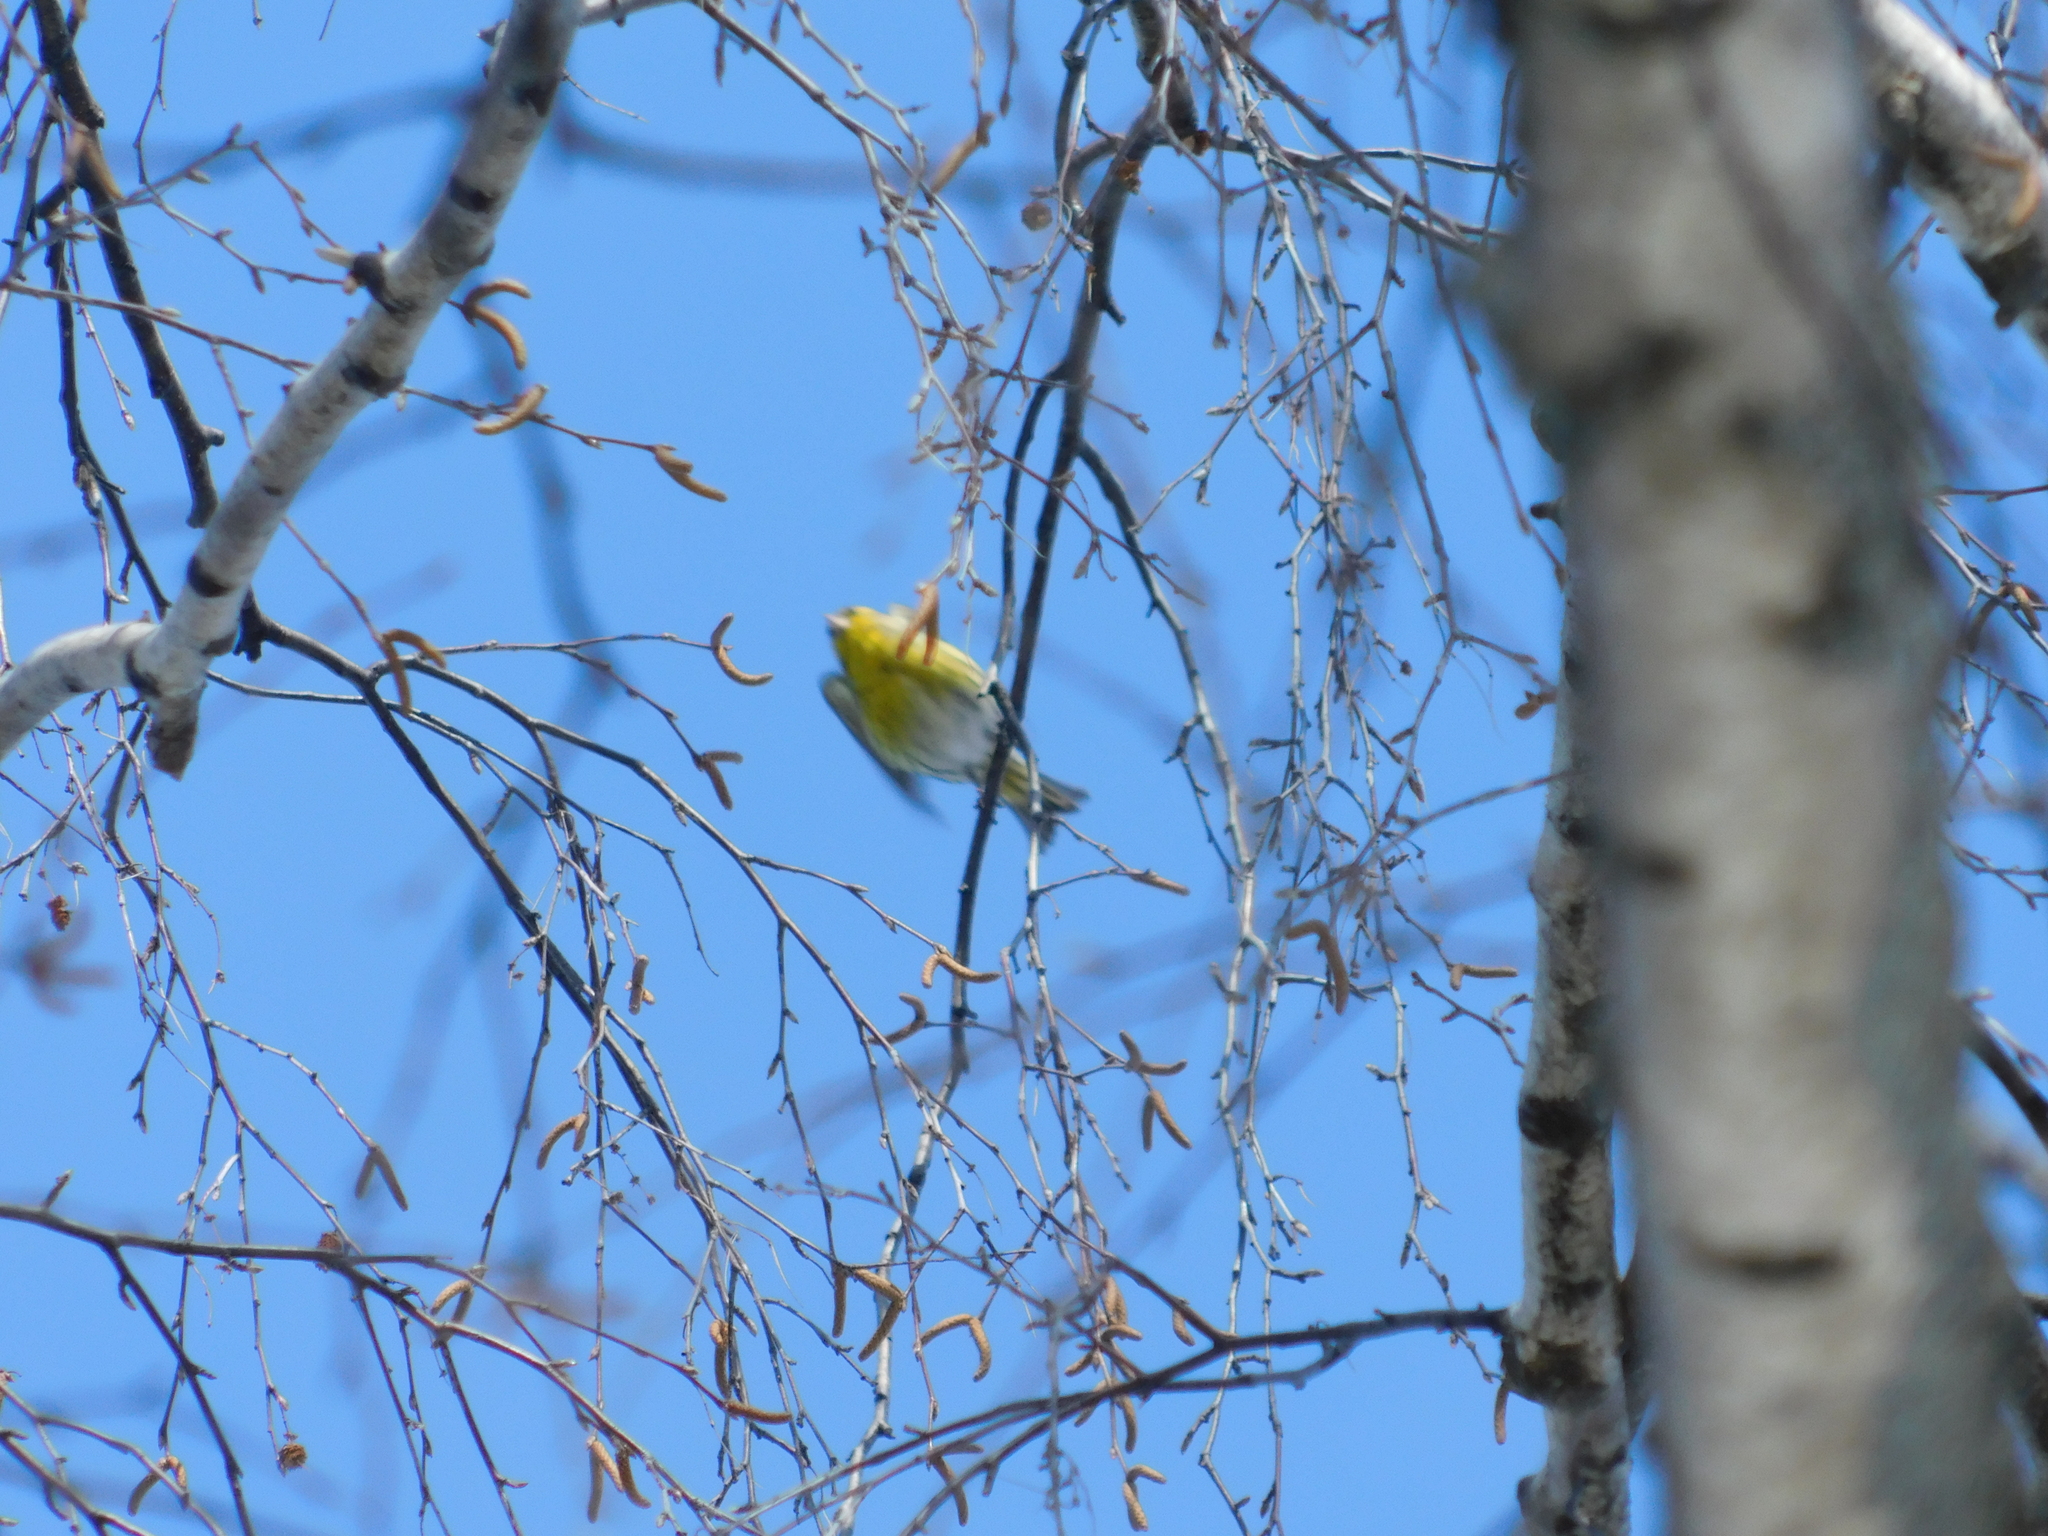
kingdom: Animalia
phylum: Chordata
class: Aves
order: Passeriformes
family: Fringillidae
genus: Spinus
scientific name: Spinus spinus
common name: Eurasian siskin
